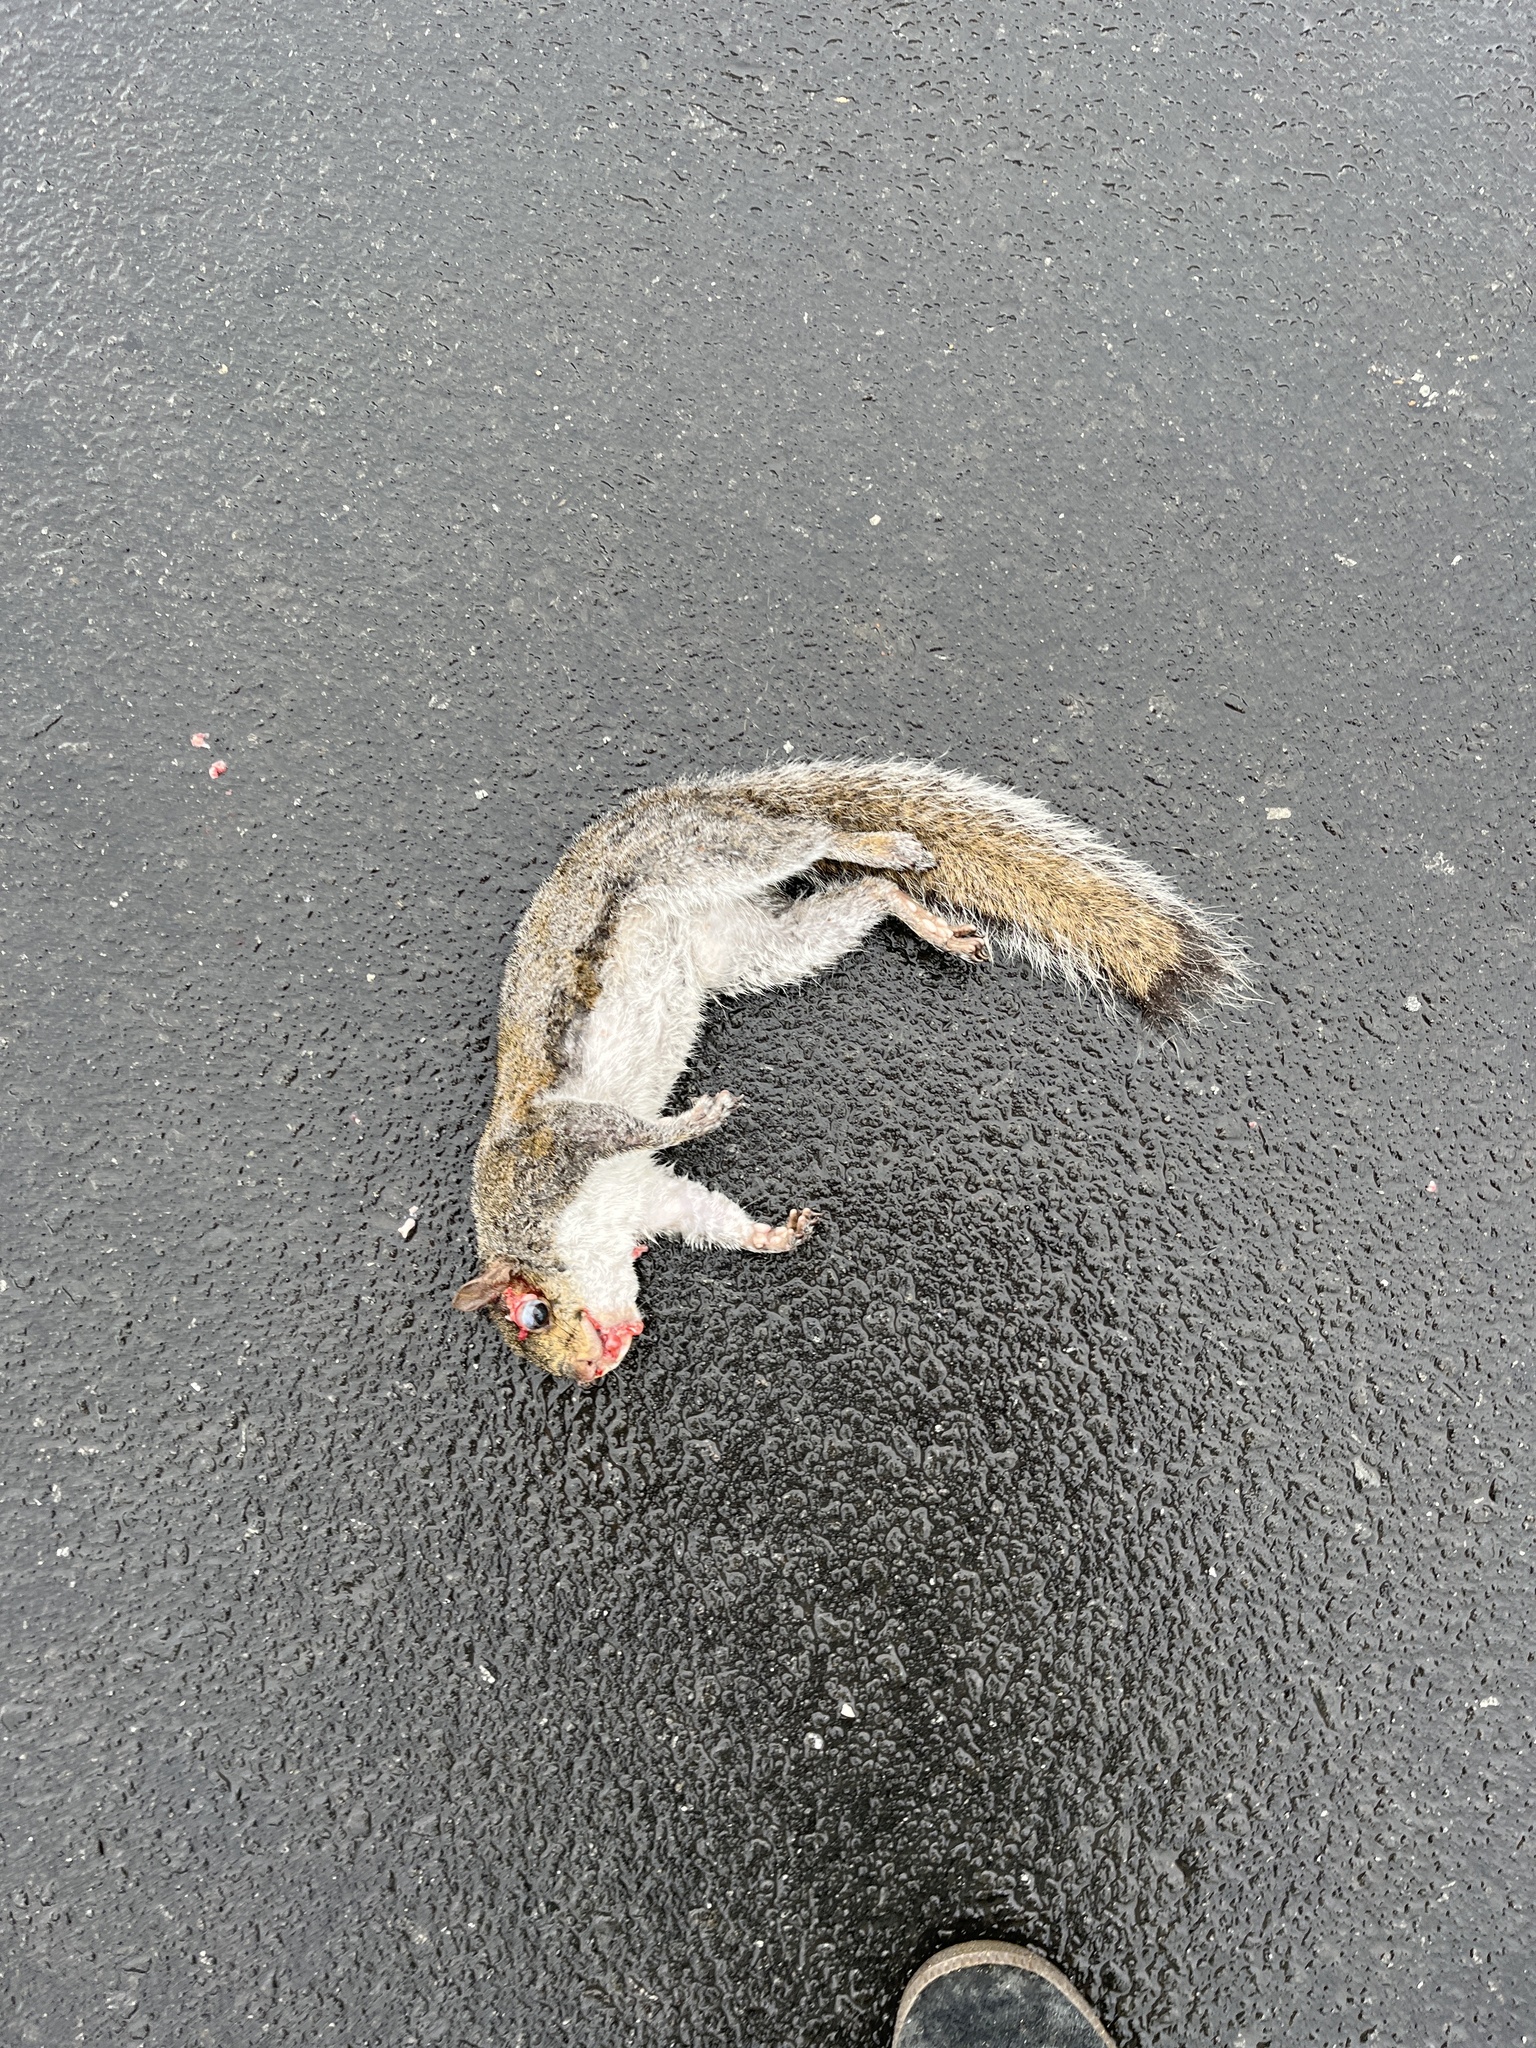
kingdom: Animalia
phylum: Chordata
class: Mammalia
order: Rodentia
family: Sciuridae
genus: Sciurus
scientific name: Sciurus carolinensis
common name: Eastern gray squirrel
